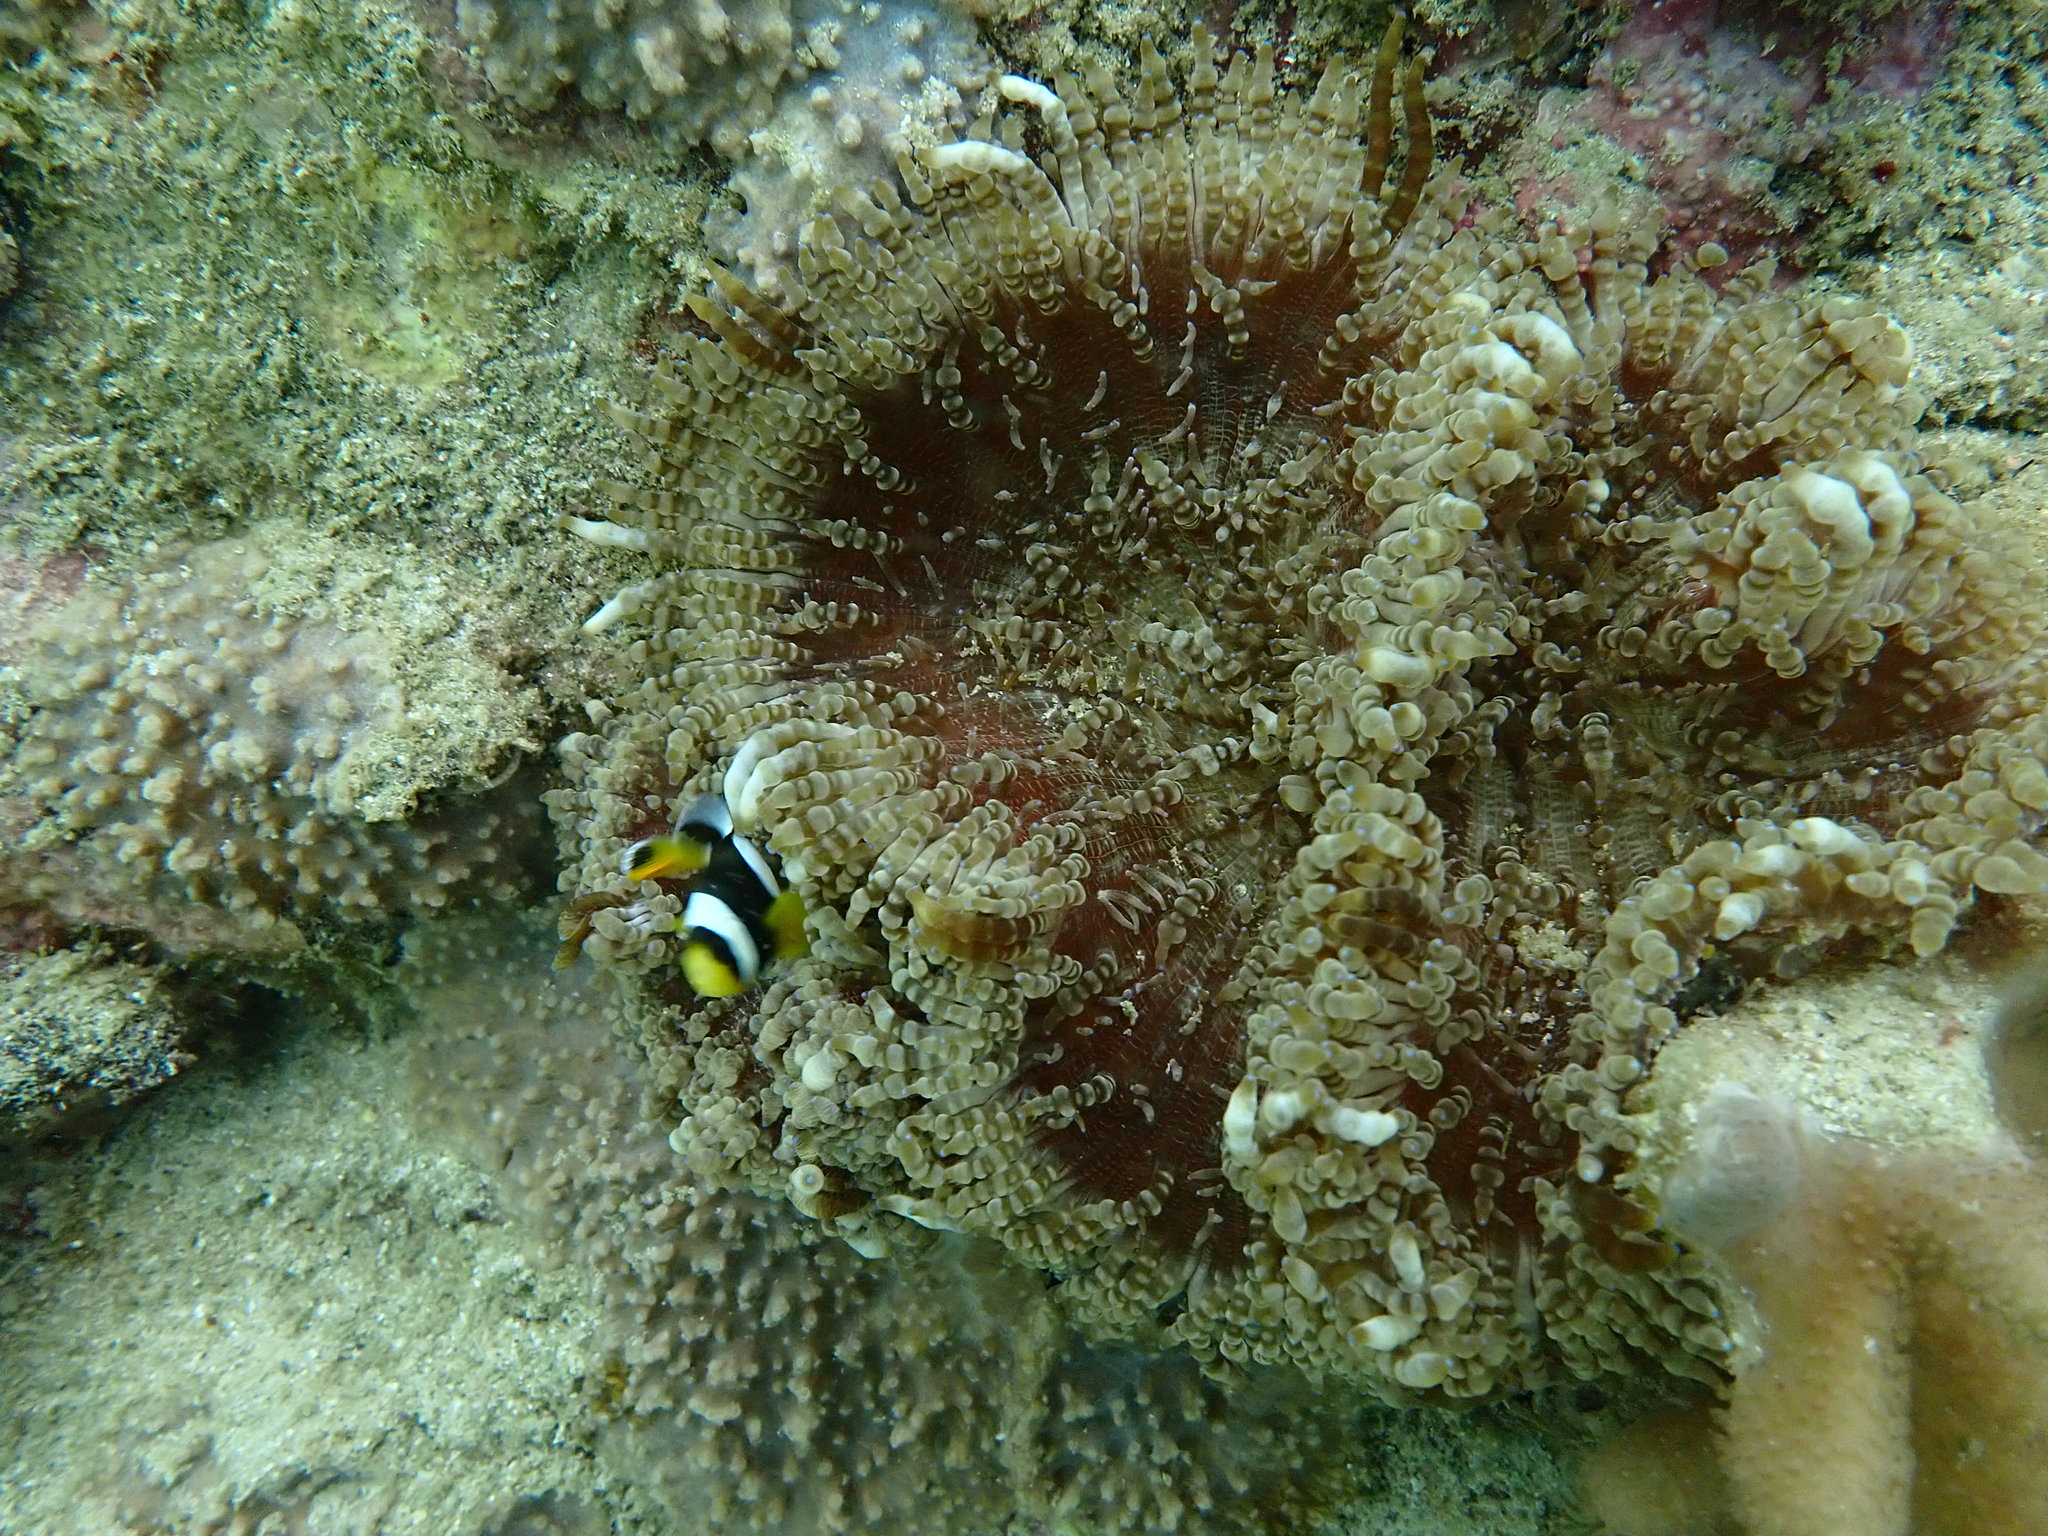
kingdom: Animalia
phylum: Cnidaria
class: Anthozoa
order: Actiniaria
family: Heteractidae
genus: Heteractis
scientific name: Heteractis aurora
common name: Beaded sea anemone
